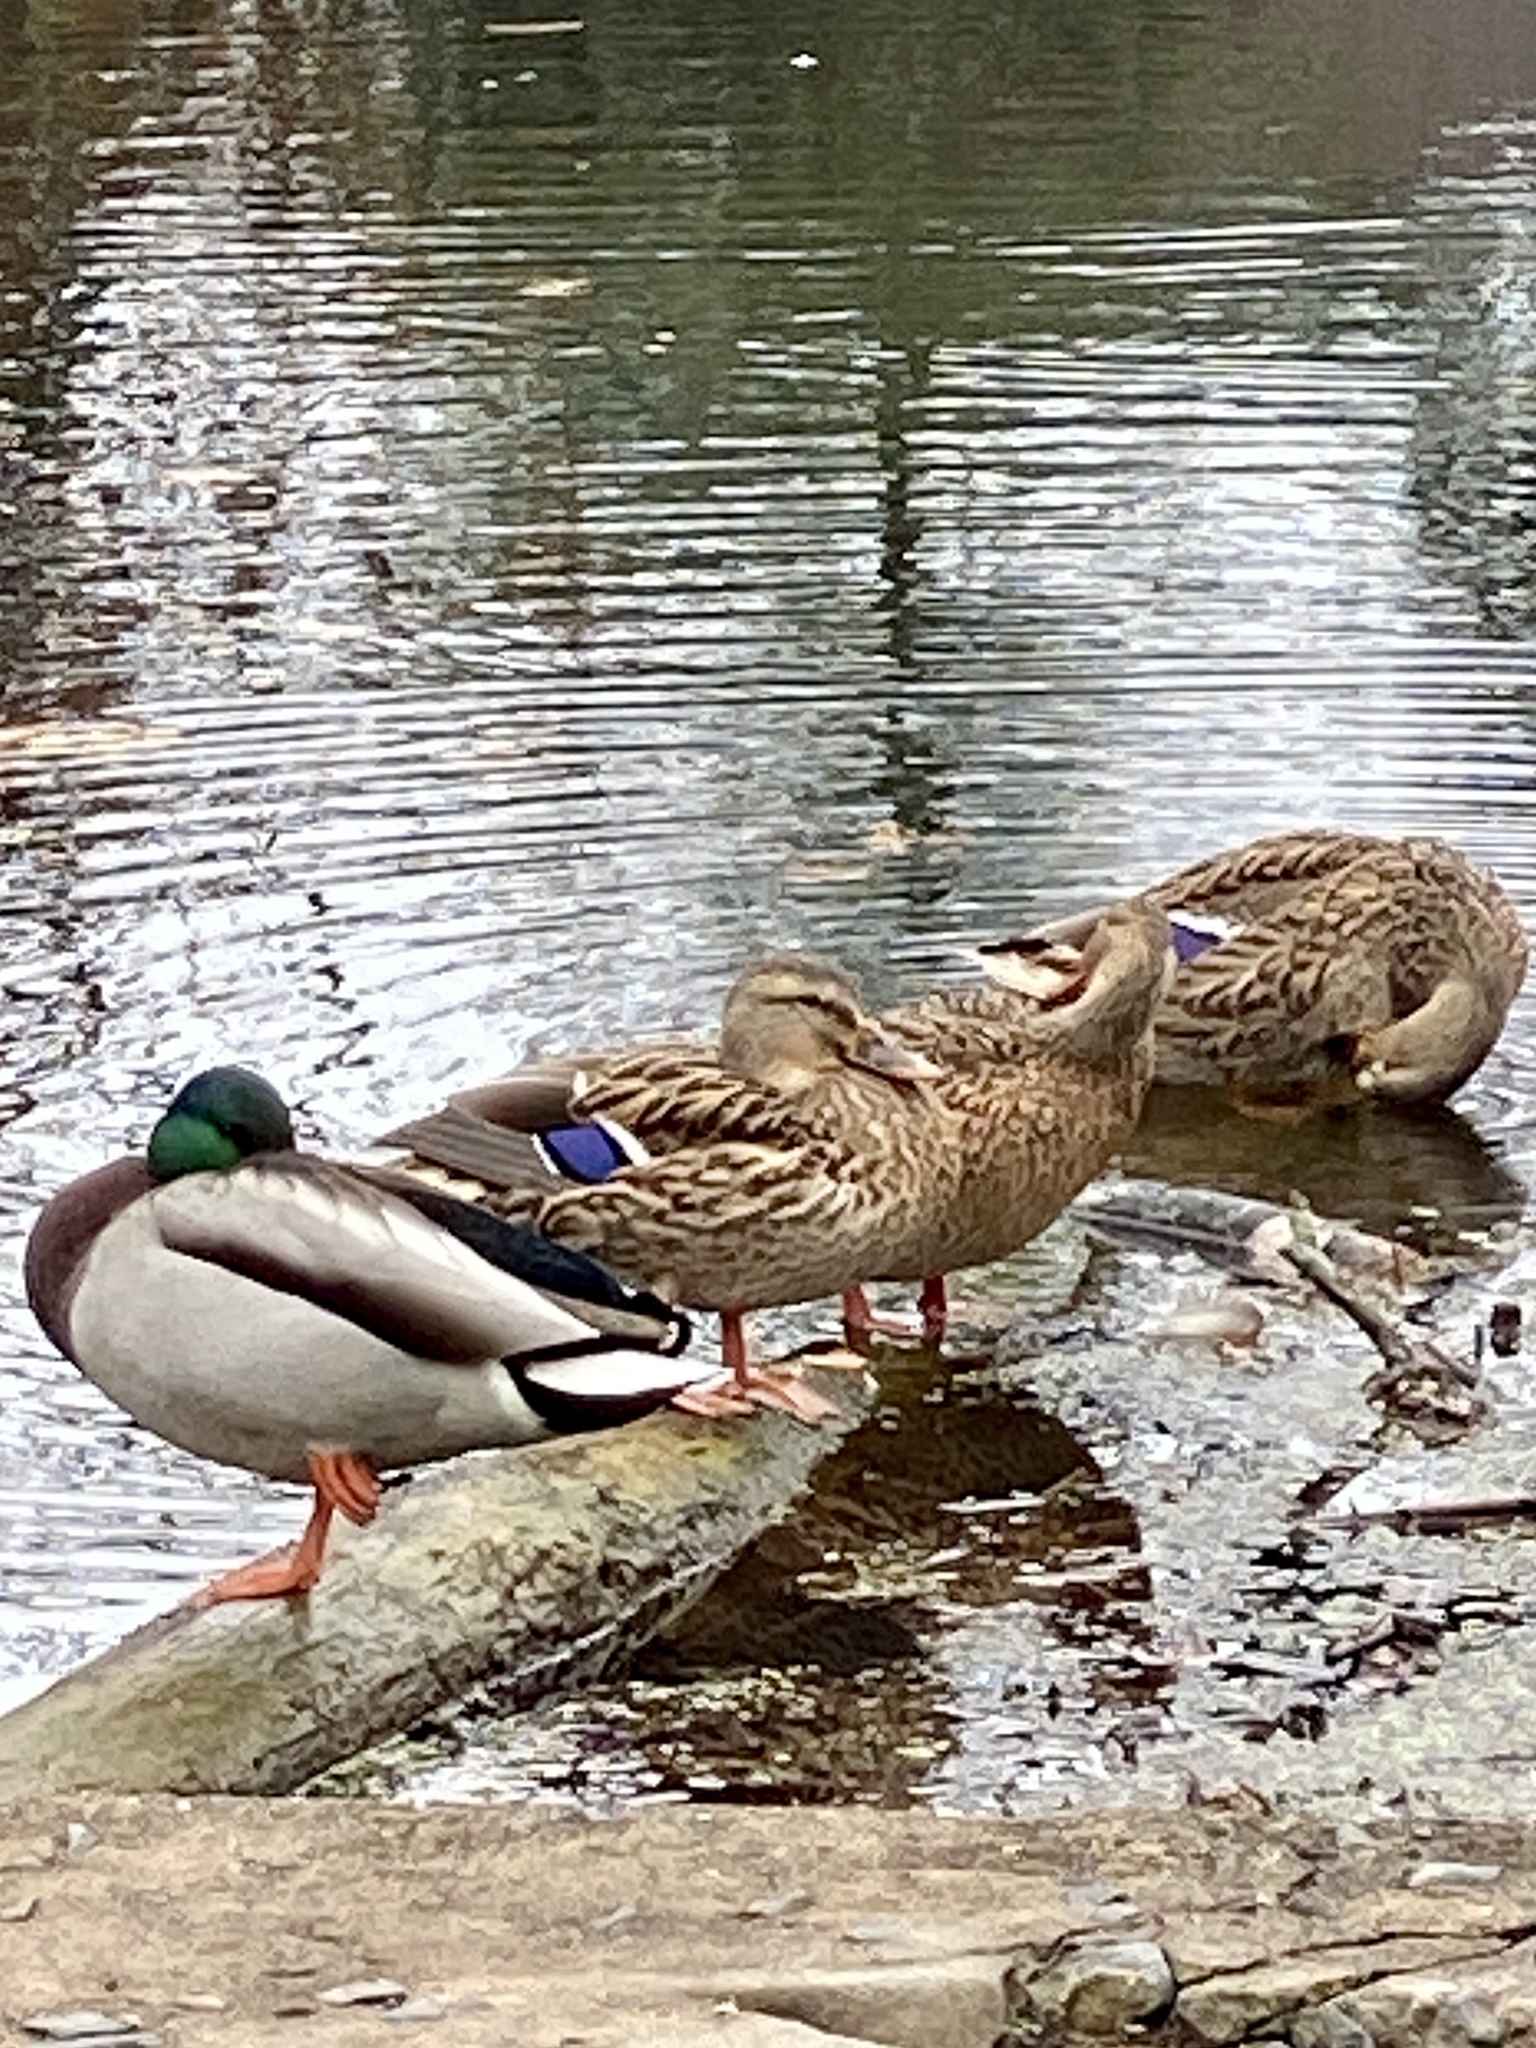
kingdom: Animalia
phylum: Chordata
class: Aves
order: Anseriformes
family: Anatidae
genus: Anas
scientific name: Anas platyrhynchos
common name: Mallard
